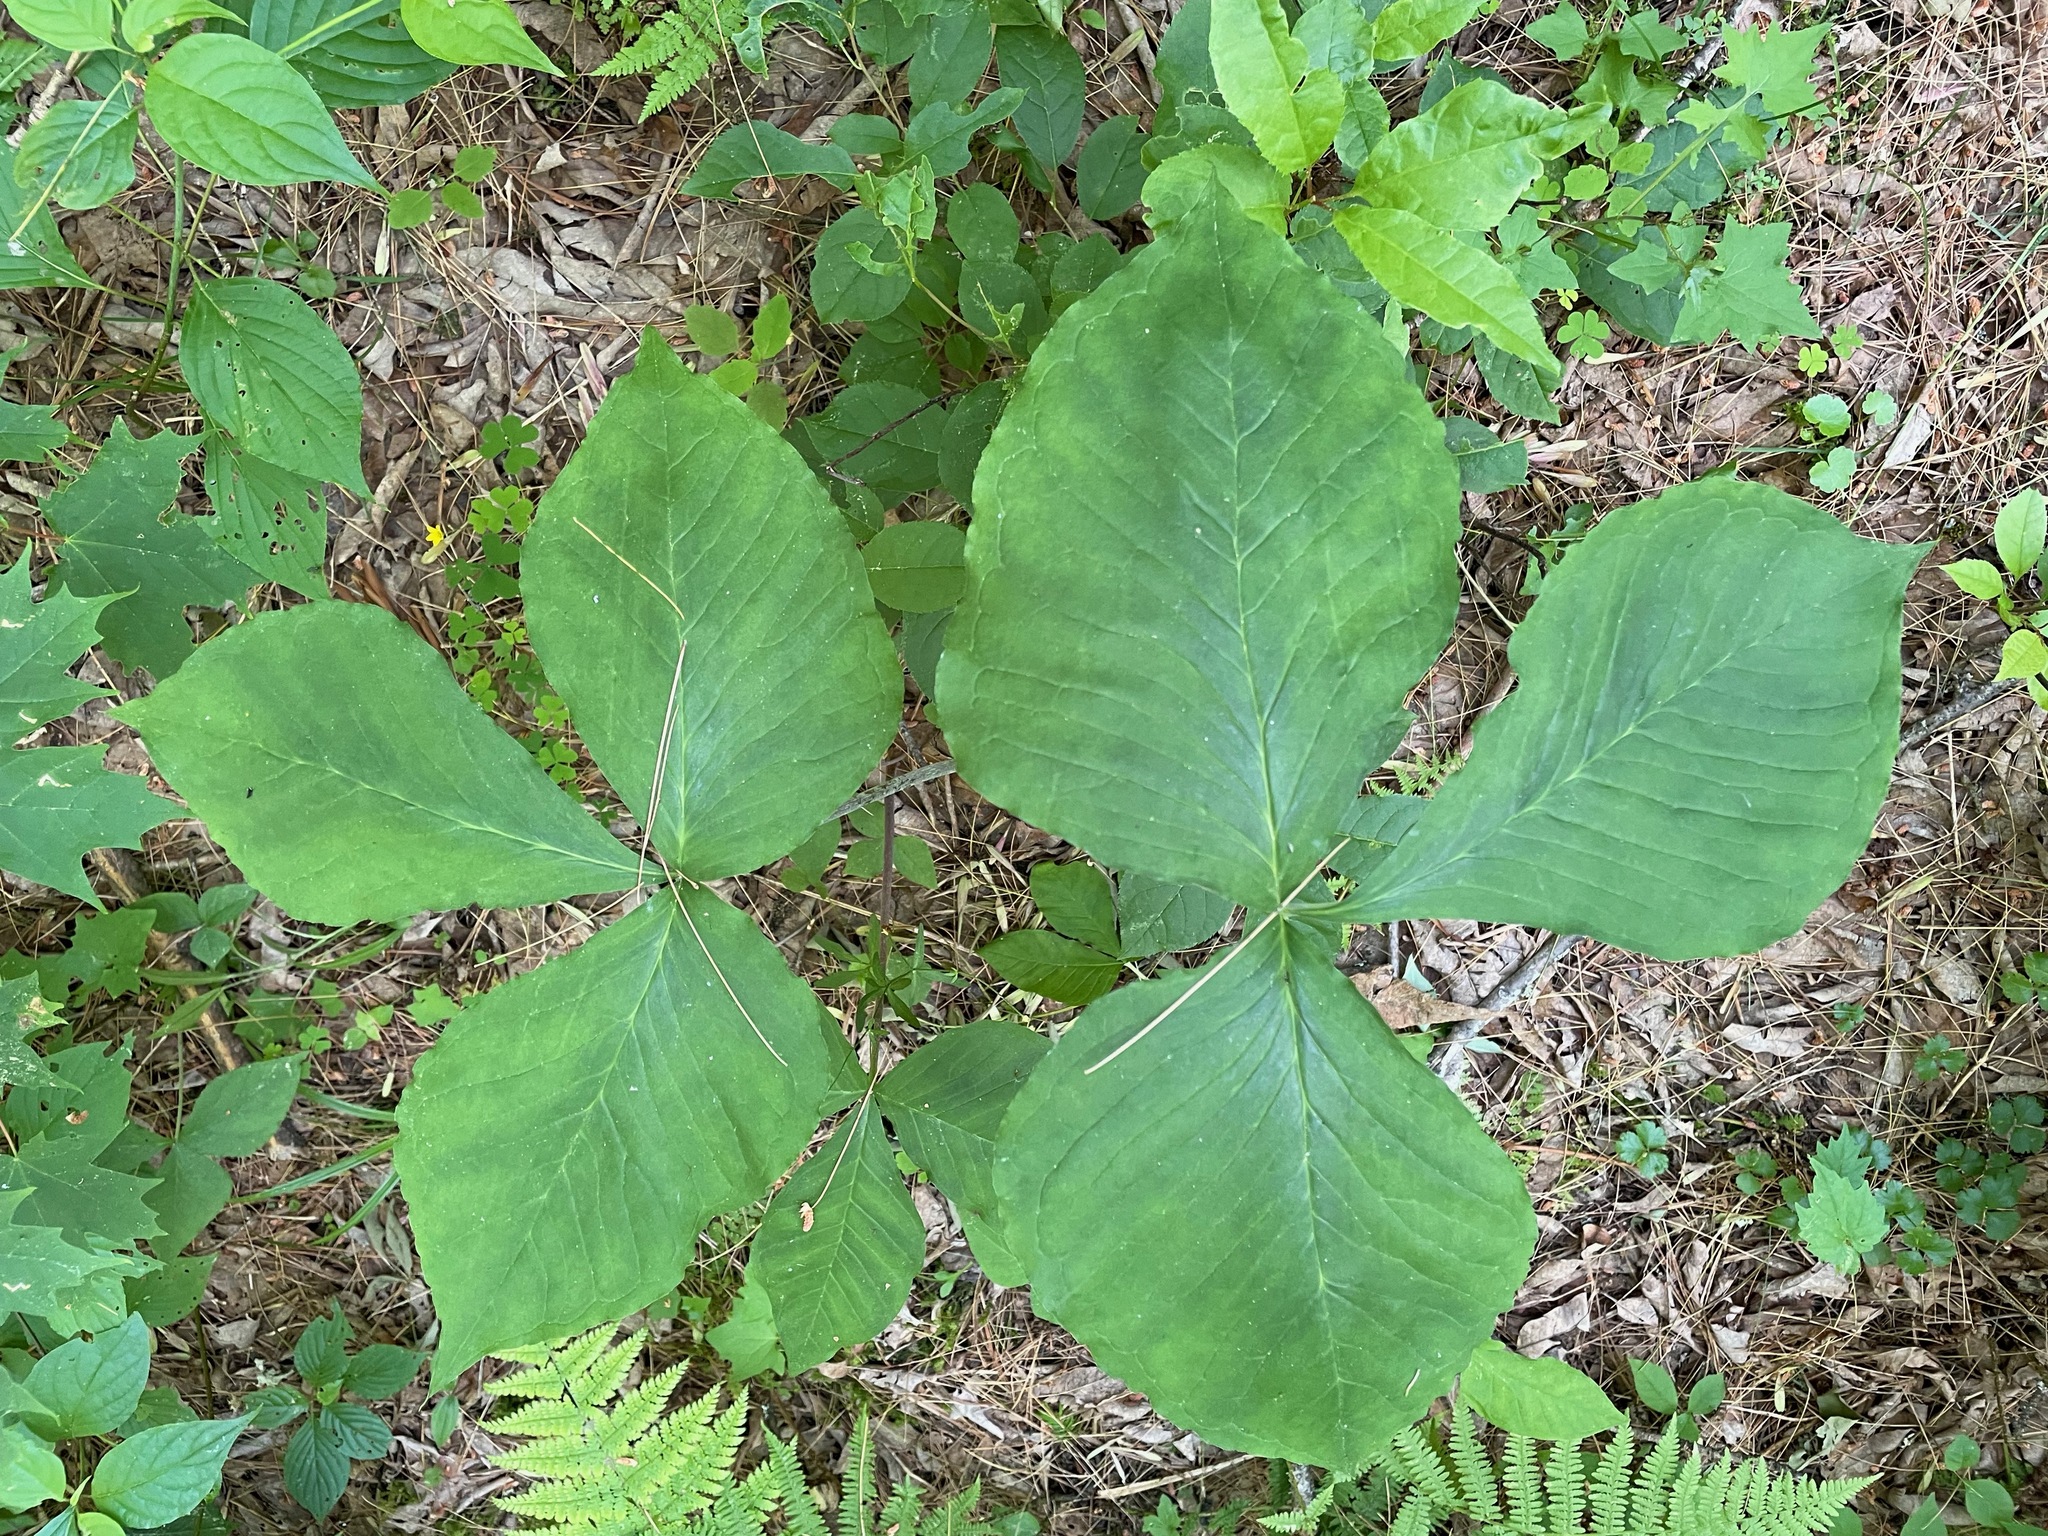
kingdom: Plantae
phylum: Tracheophyta
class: Liliopsida
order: Alismatales
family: Araceae
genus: Arisaema
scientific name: Arisaema
